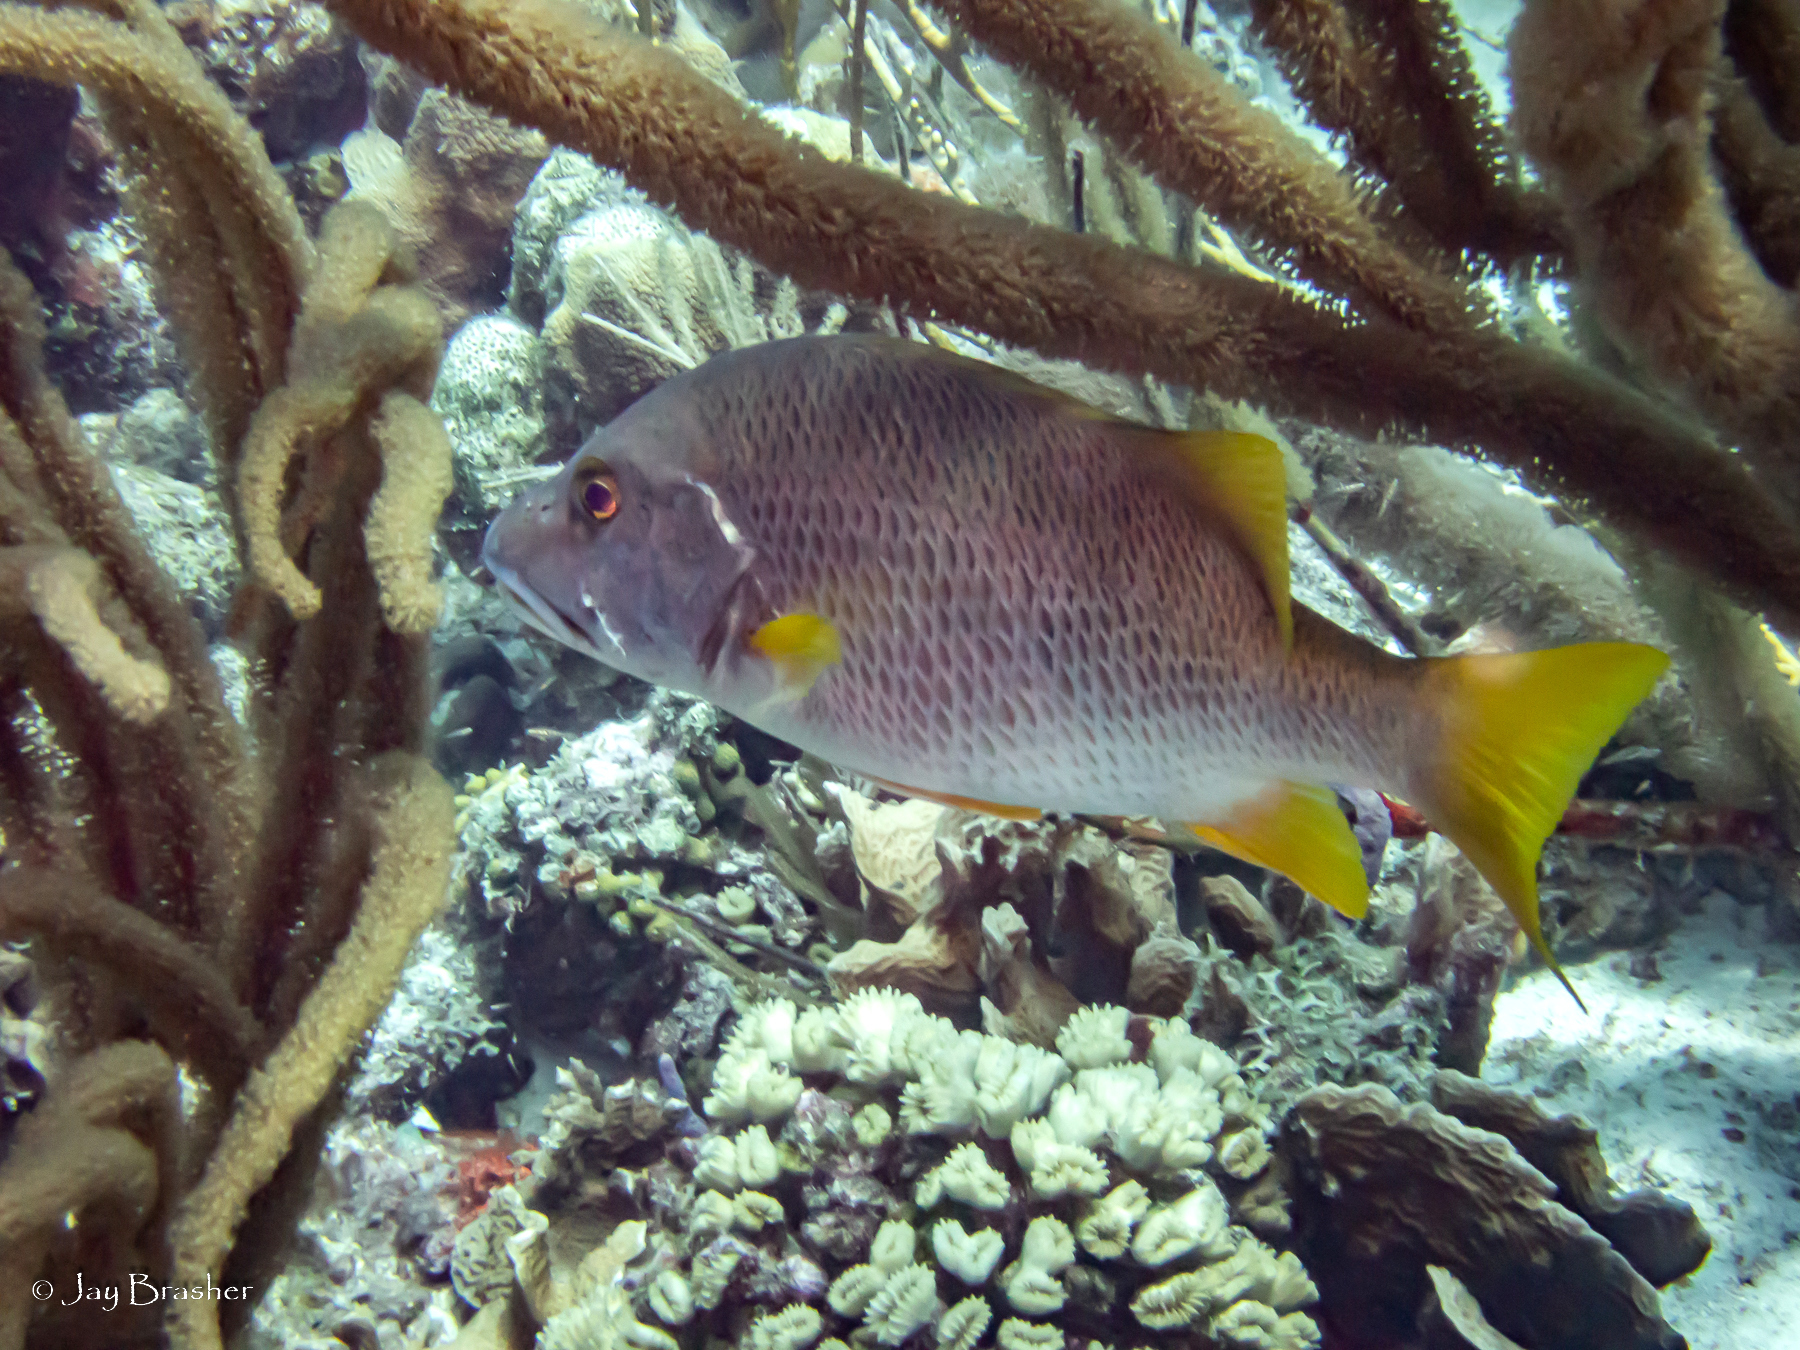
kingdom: Animalia
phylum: Chordata
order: Perciformes
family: Lutjanidae
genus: Lutjanus
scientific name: Lutjanus apodus
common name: Schoolmaster
